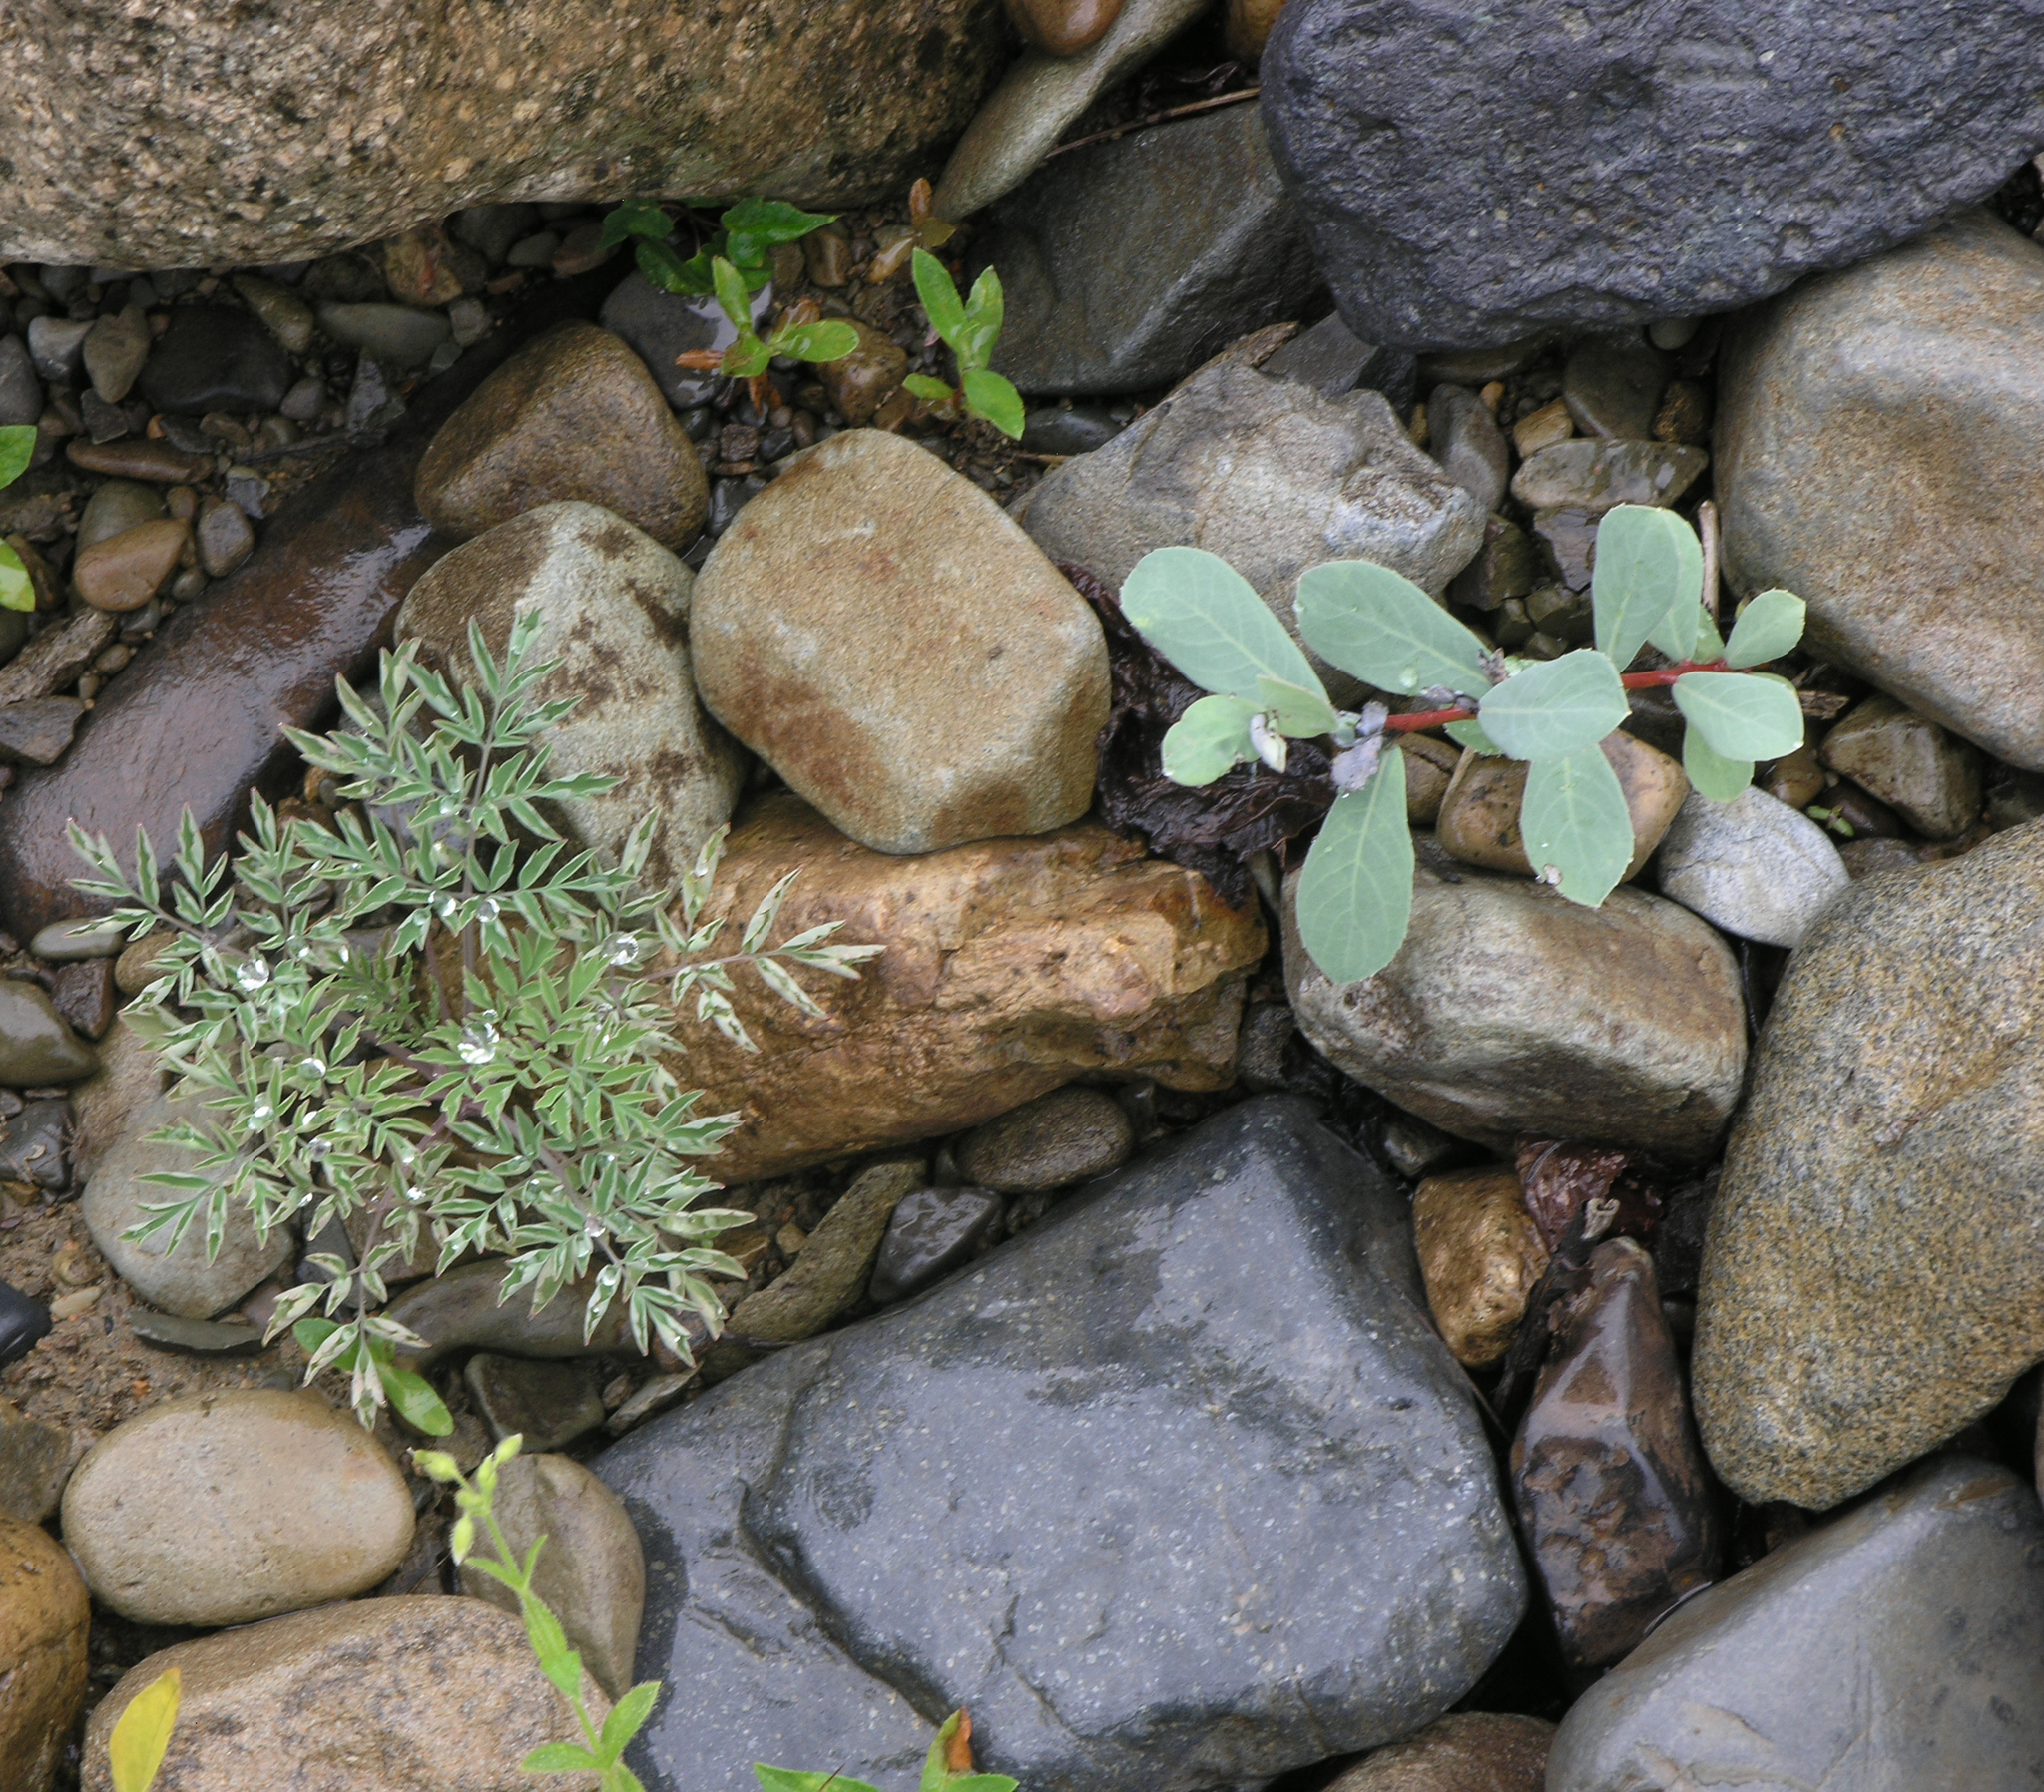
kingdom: Plantae
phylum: Tracheophyta
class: Magnoliopsida
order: Malpighiales
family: Salicaceae
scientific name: Salicaceae
